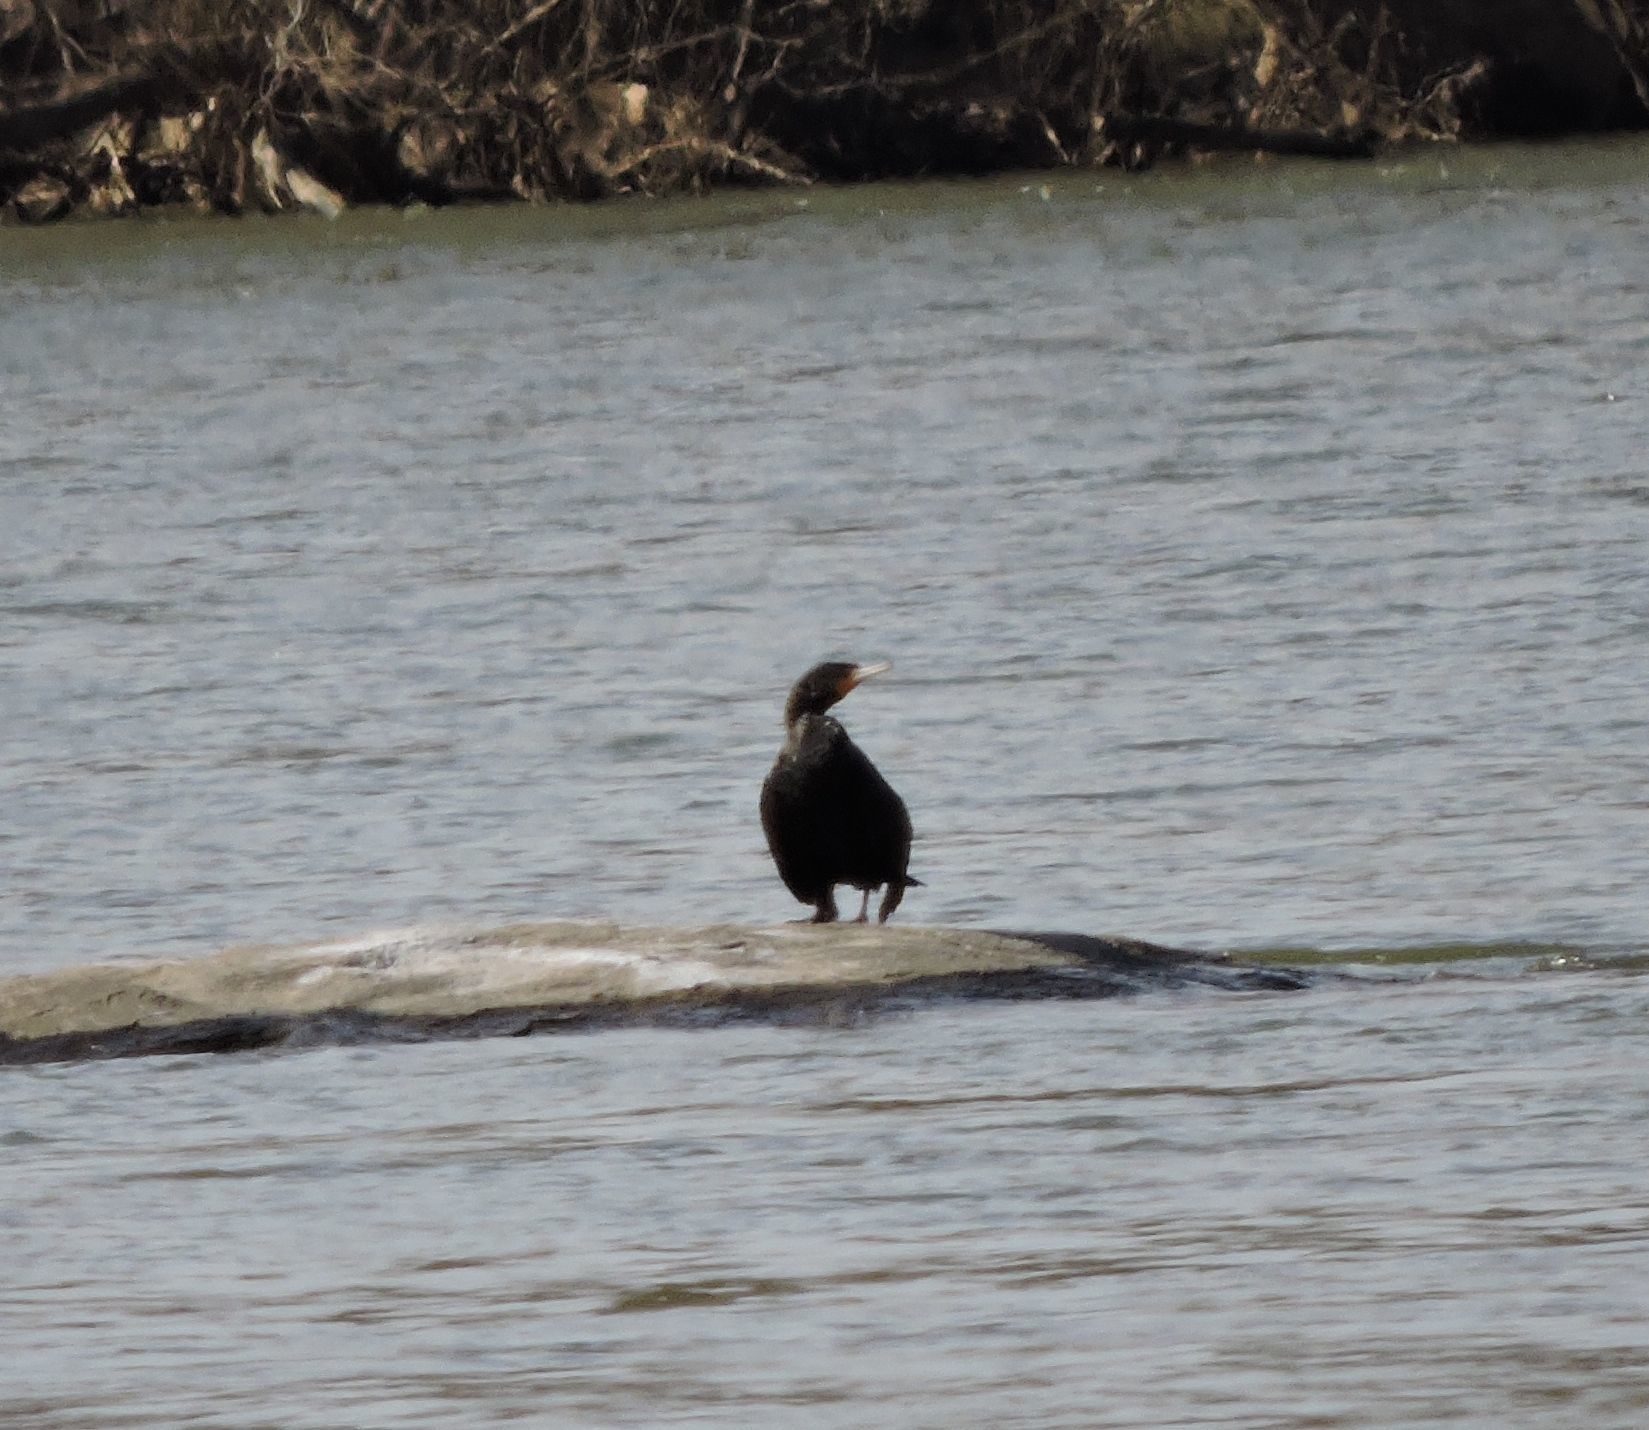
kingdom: Animalia
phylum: Chordata
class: Aves
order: Suliformes
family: Phalacrocoracidae
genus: Phalacrocorax
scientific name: Phalacrocorax auritus
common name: Double-crested cormorant
